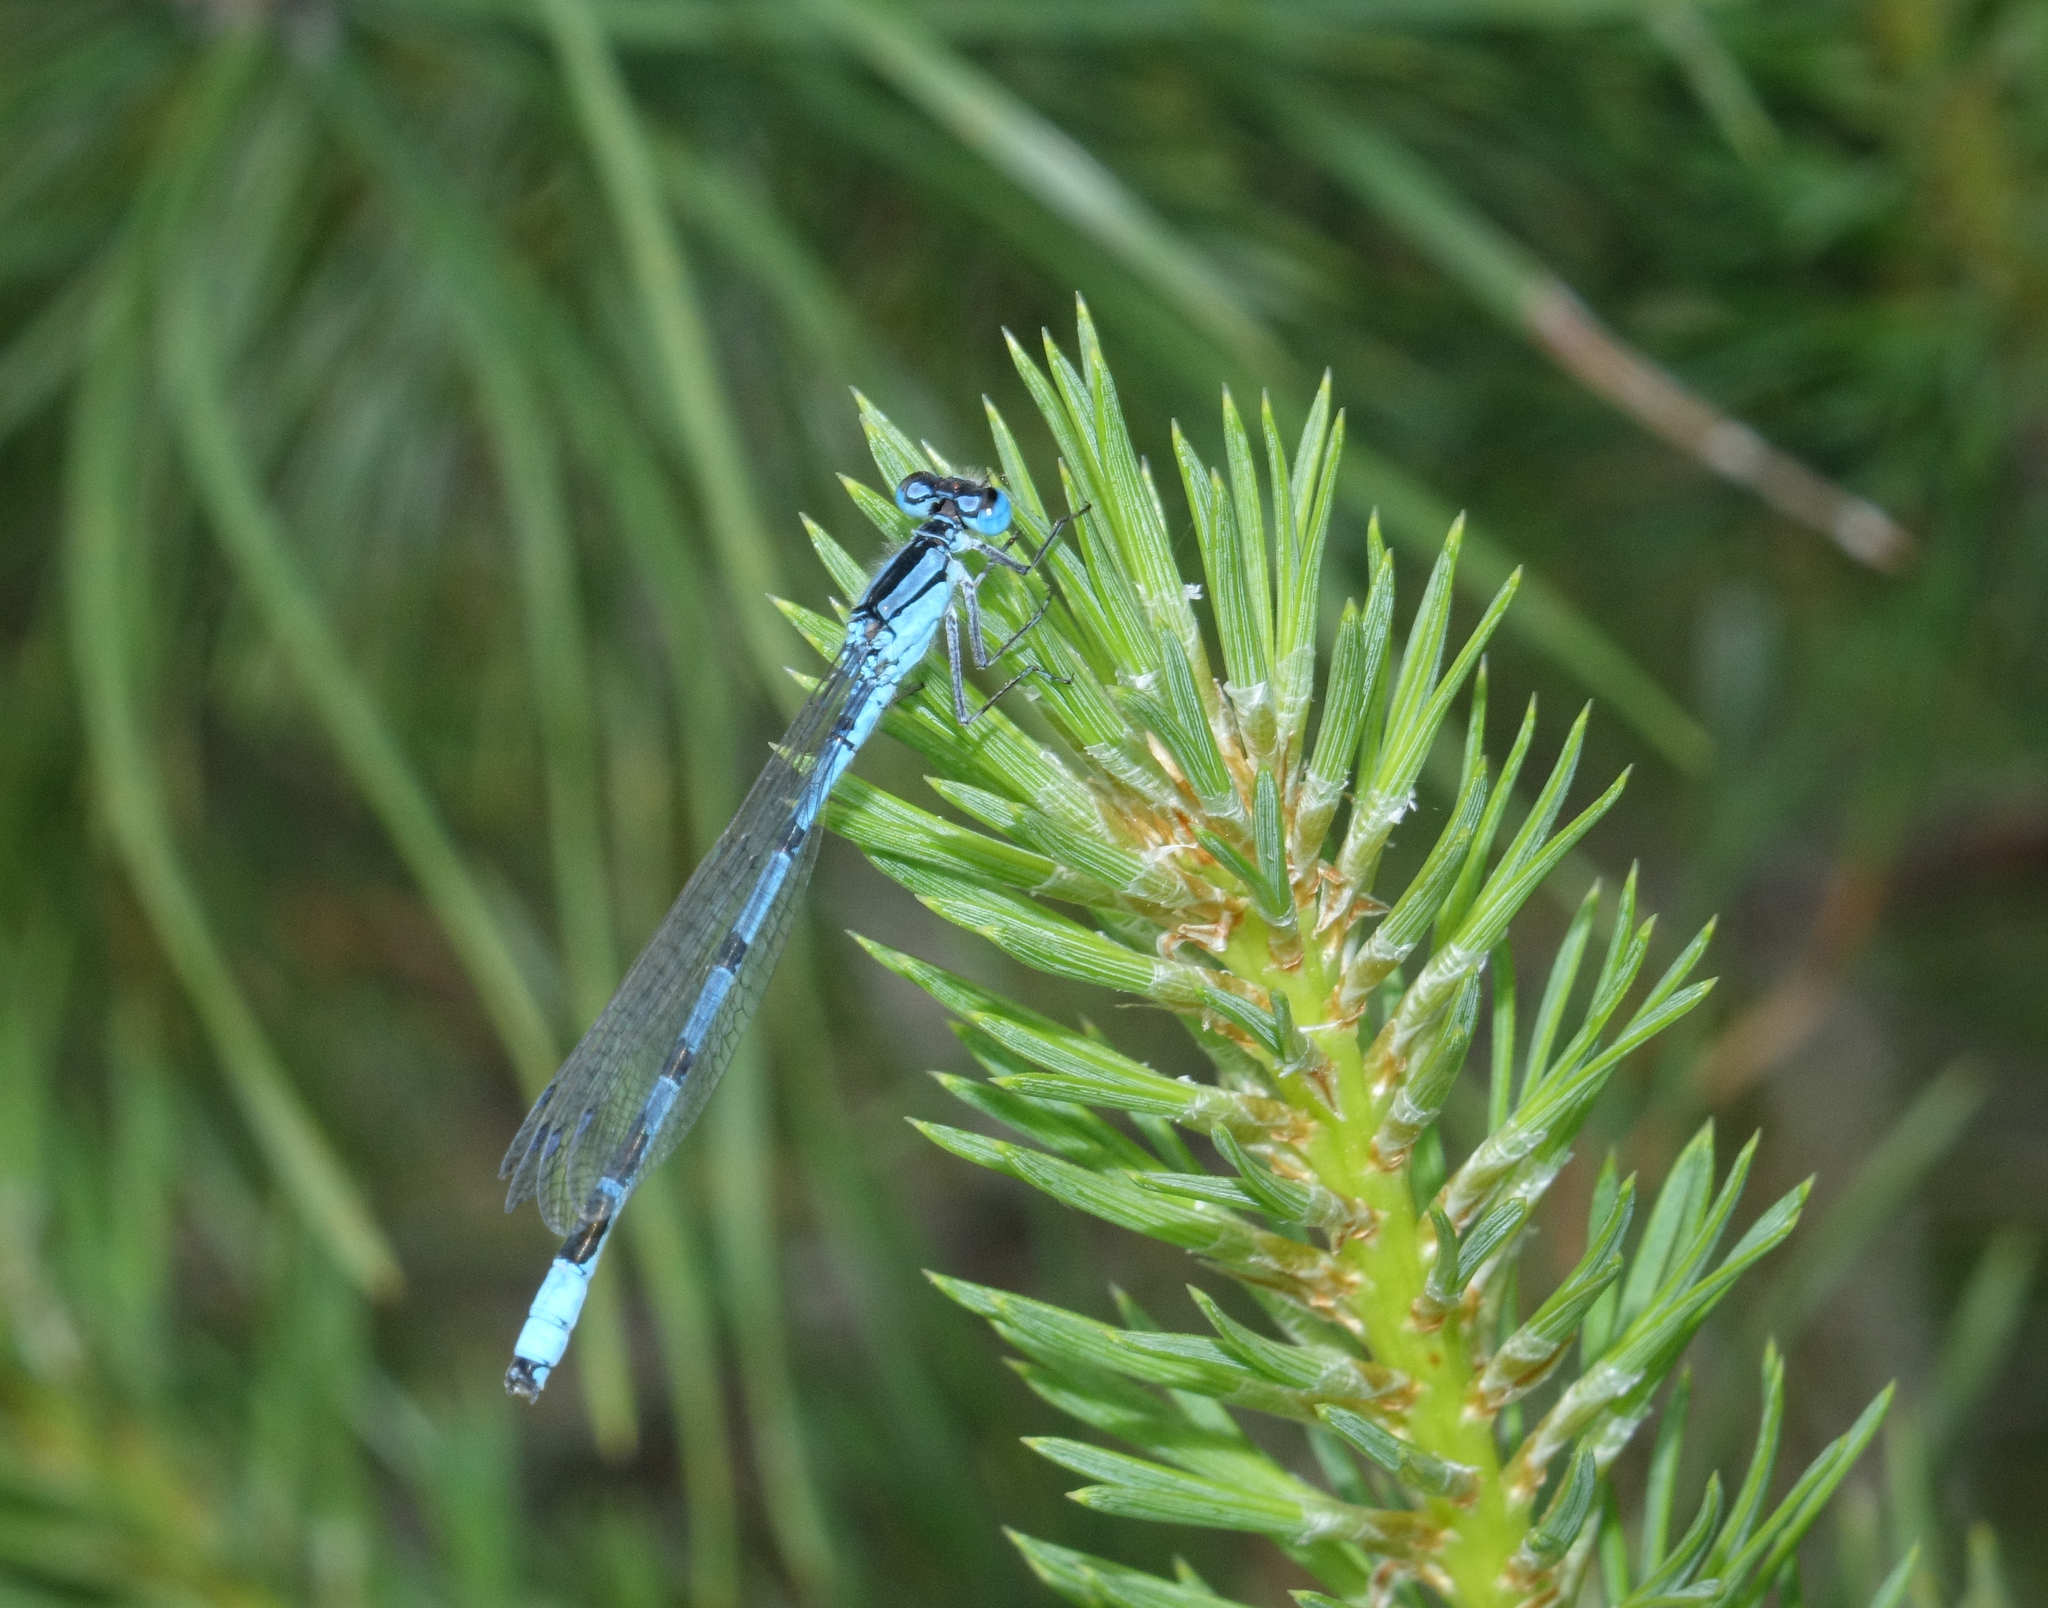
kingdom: Animalia
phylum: Arthropoda
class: Insecta
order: Odonata
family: Coenagrionidae
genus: Enallagma
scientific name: Enallagma cyathigerum
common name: Common blue damselfly
